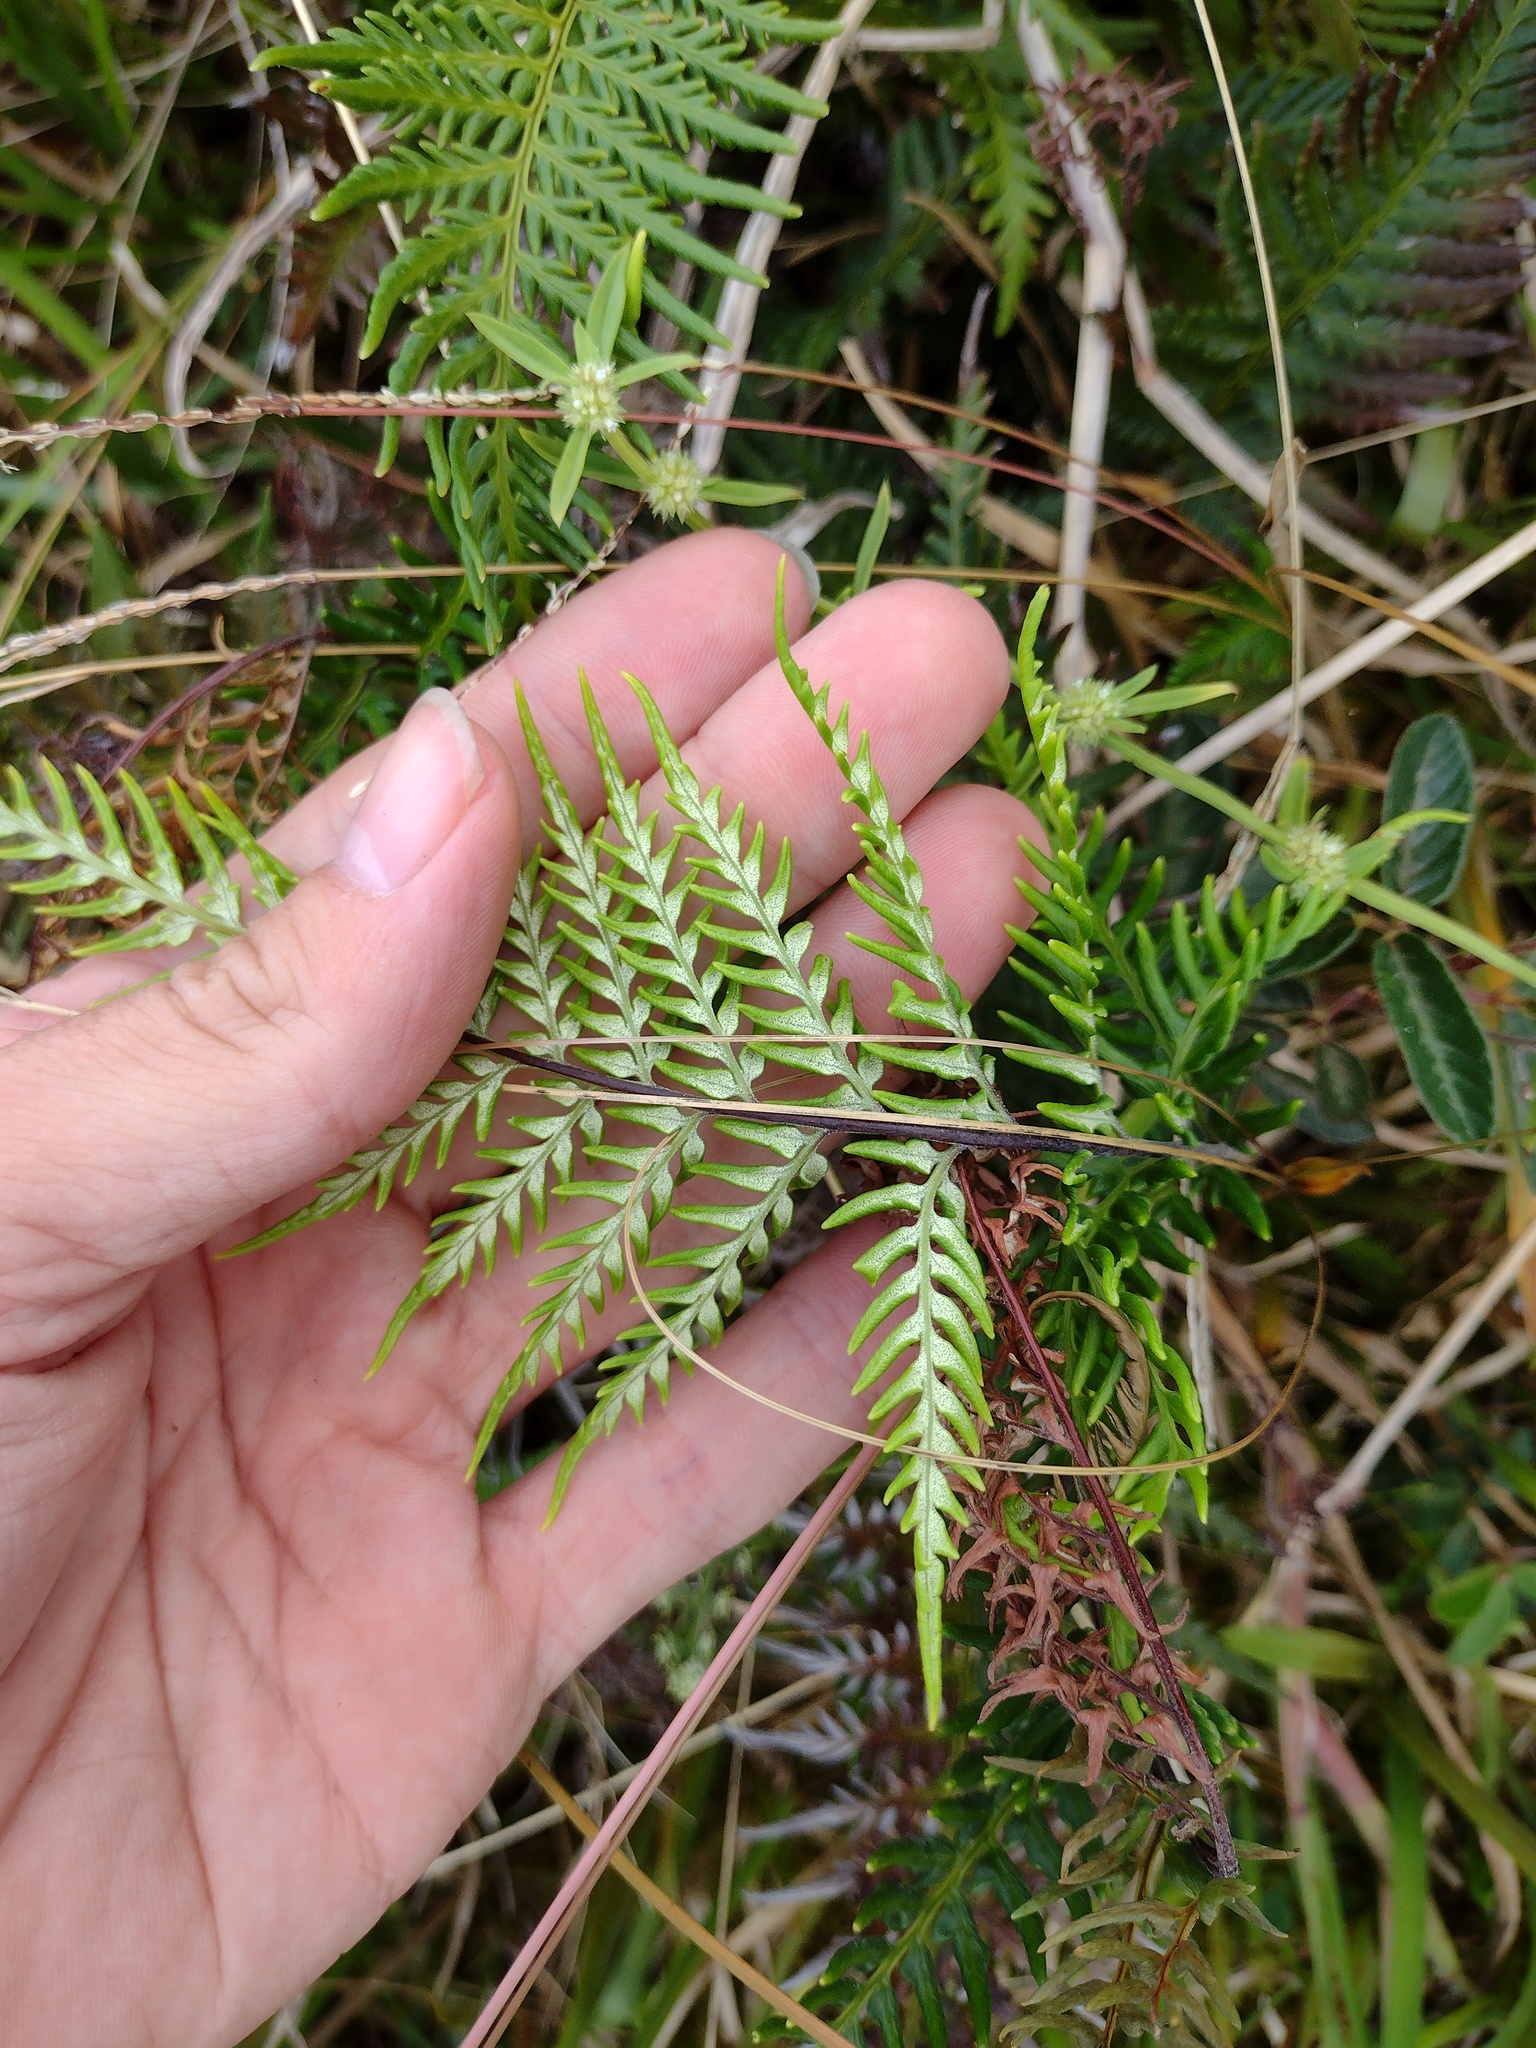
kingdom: Plantae
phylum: Tracheophyta
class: Polypodiopsida
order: Polypodiales
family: Pteridaceae
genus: Pityrogramma
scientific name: Pityrogramma calomelanos
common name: Dixie silverback fern
